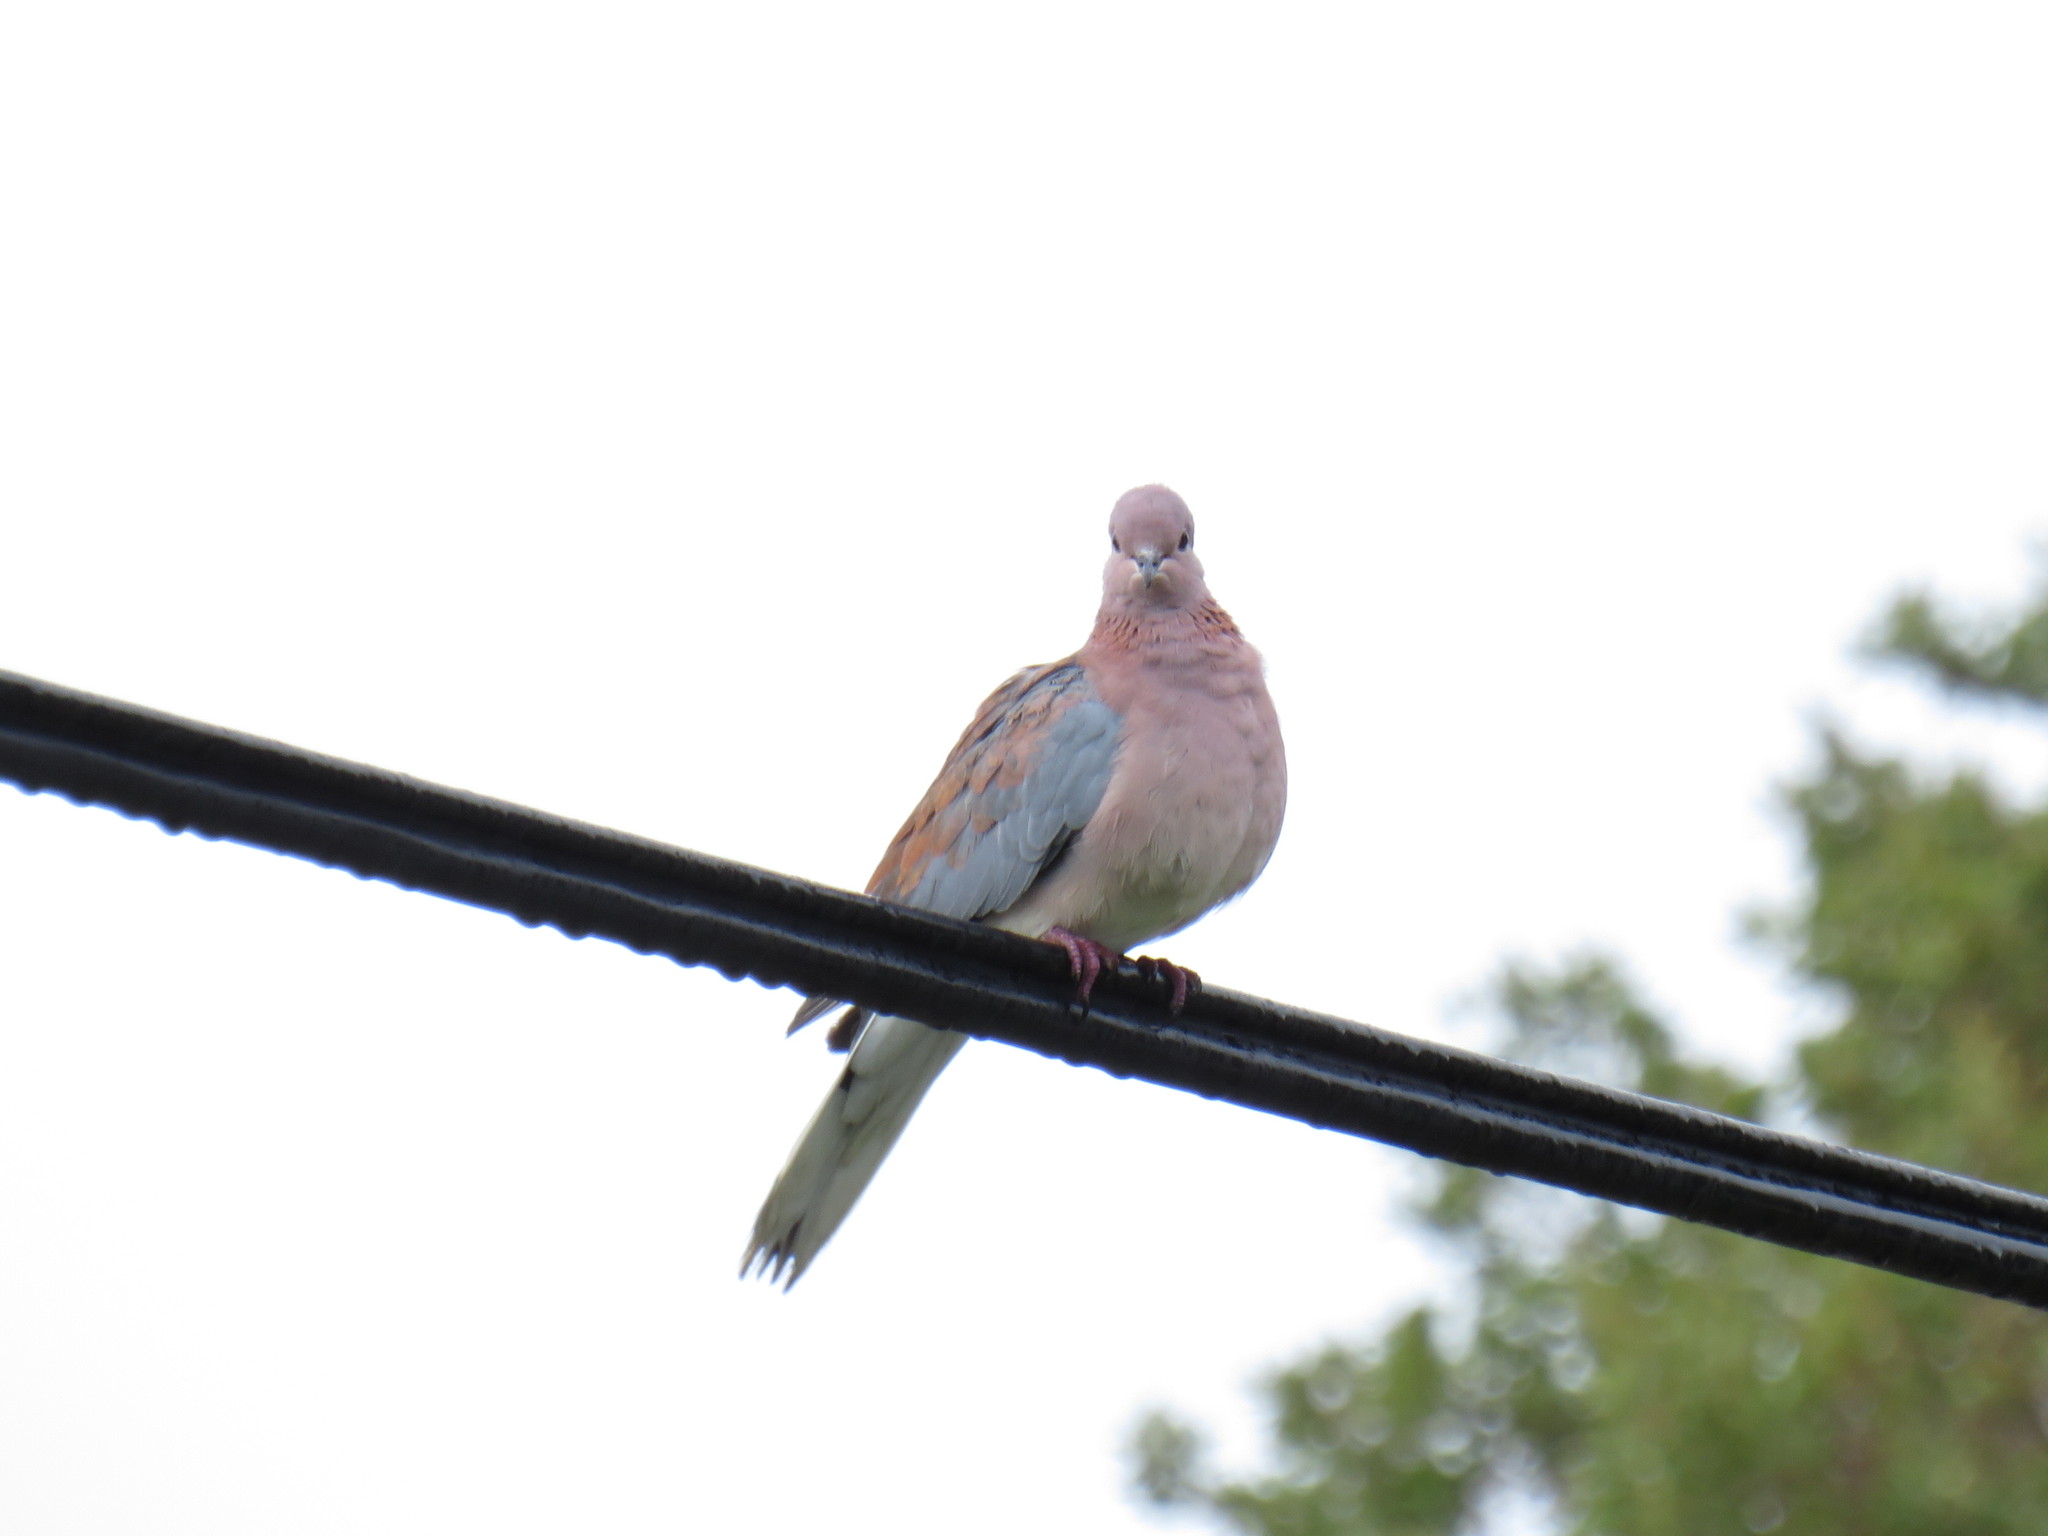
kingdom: Animalia
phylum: Chordata
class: Aves
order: Columbiformes
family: Columbidae
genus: Spilopelia
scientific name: Spilopelia senegalensis
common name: Laughing dove
